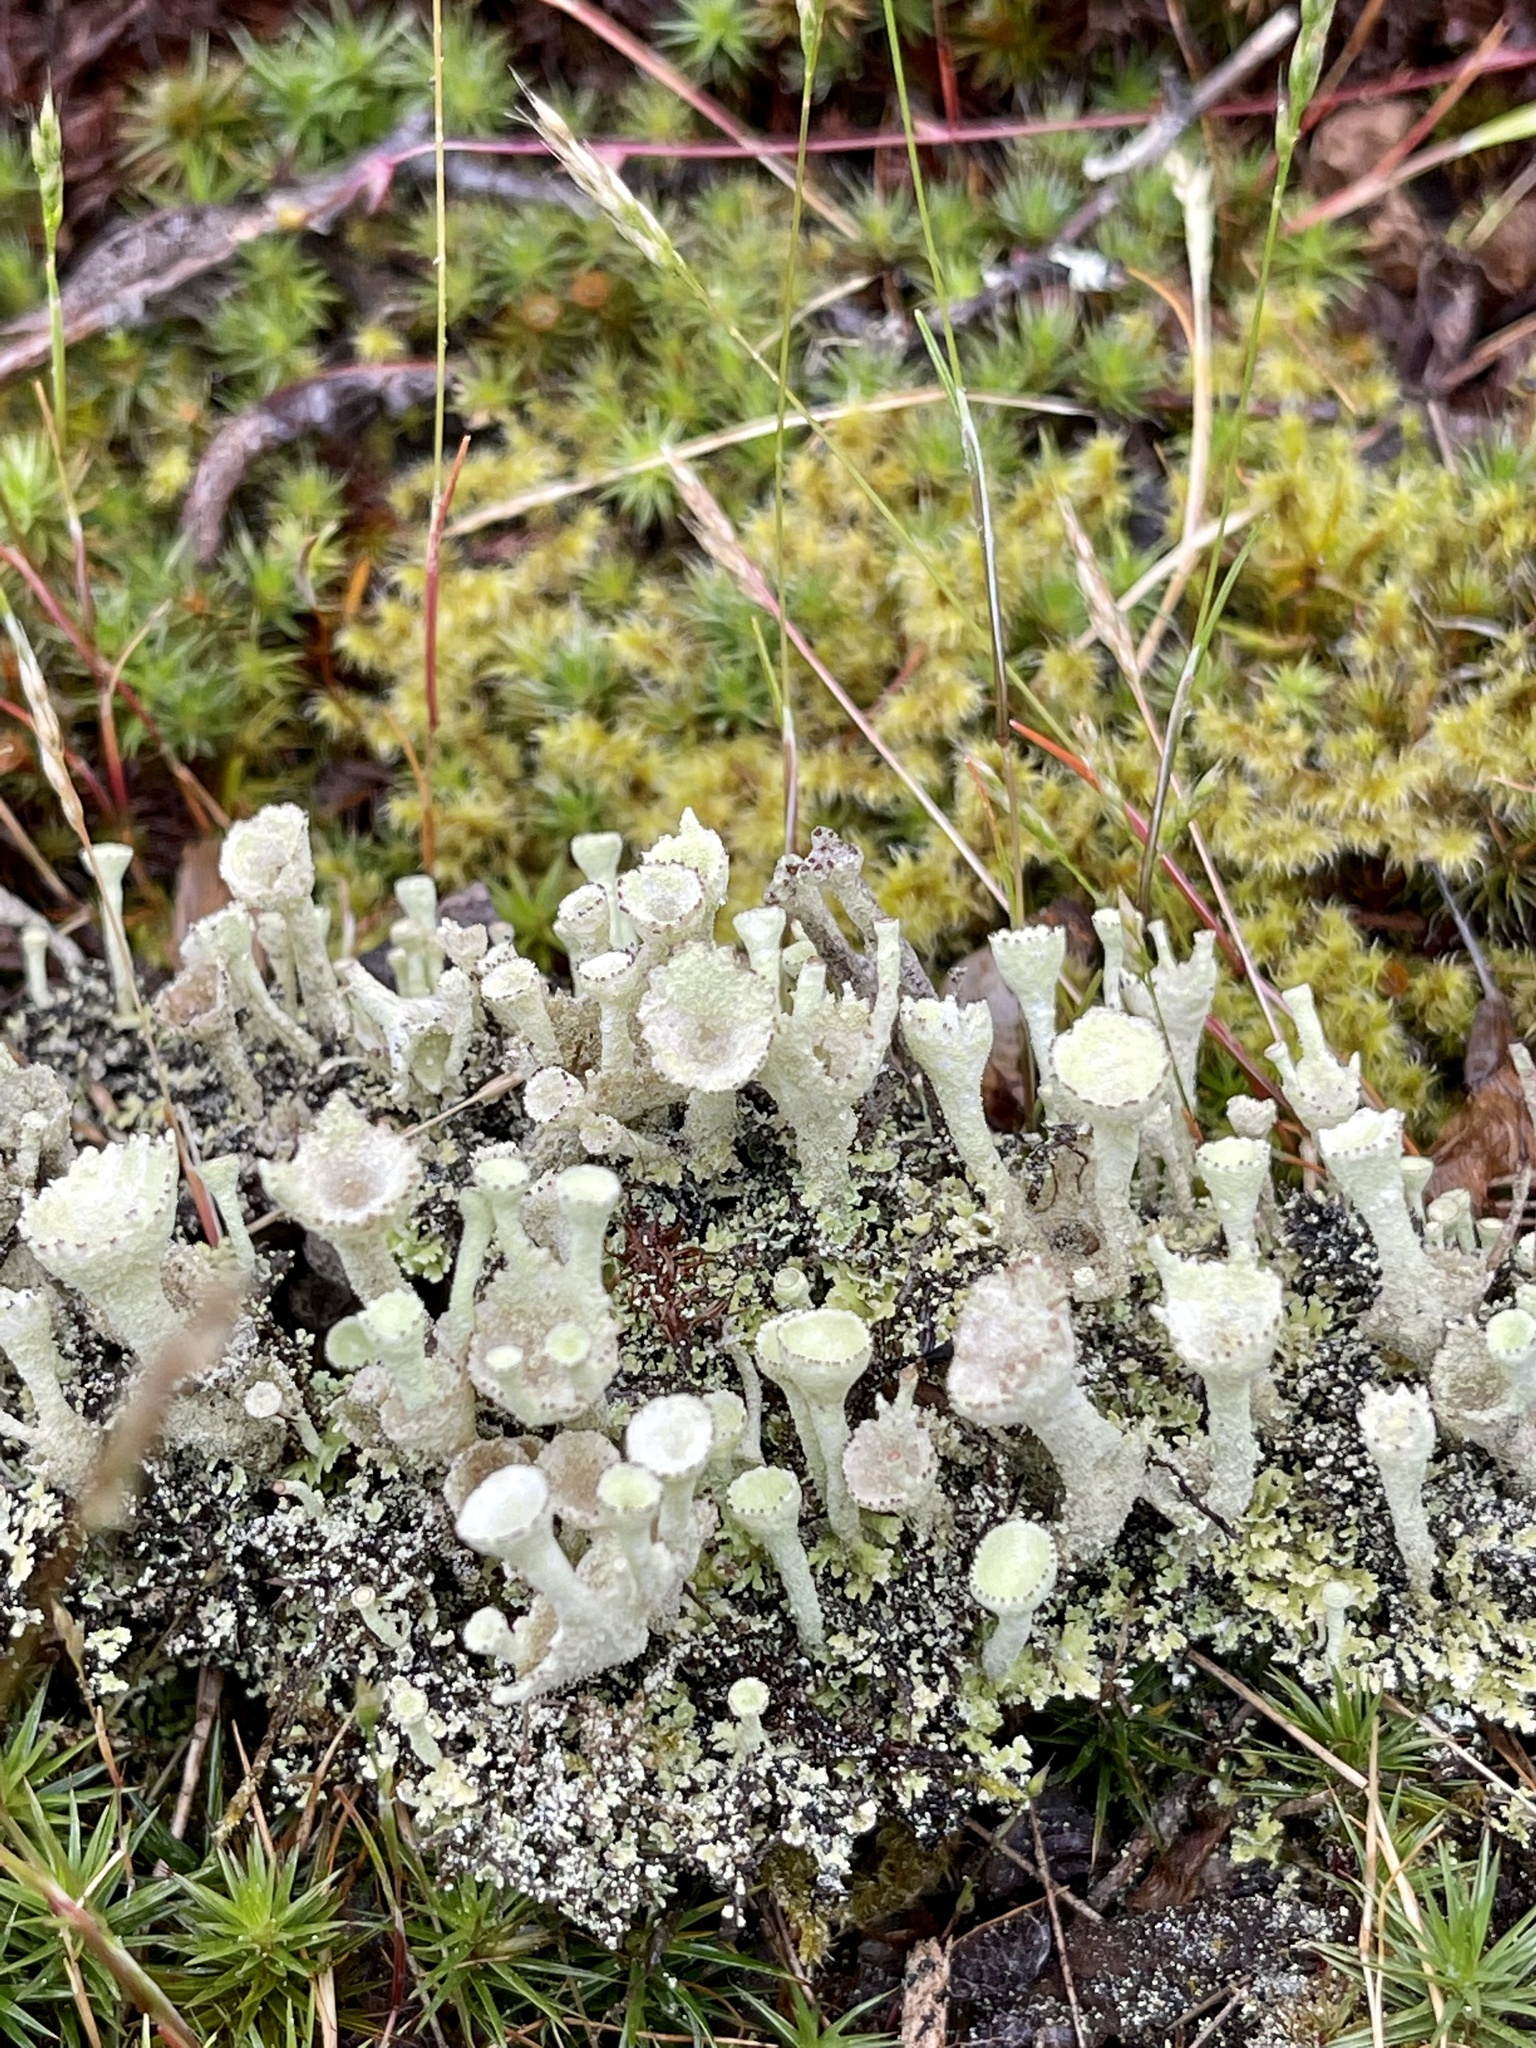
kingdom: Fungi
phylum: Ascomycota
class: Lecanoromycetes
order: Lecanorales
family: Cladoniaceae
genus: Cladonia
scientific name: Cladonia fimbriata
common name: Powdered trumpet lichen
